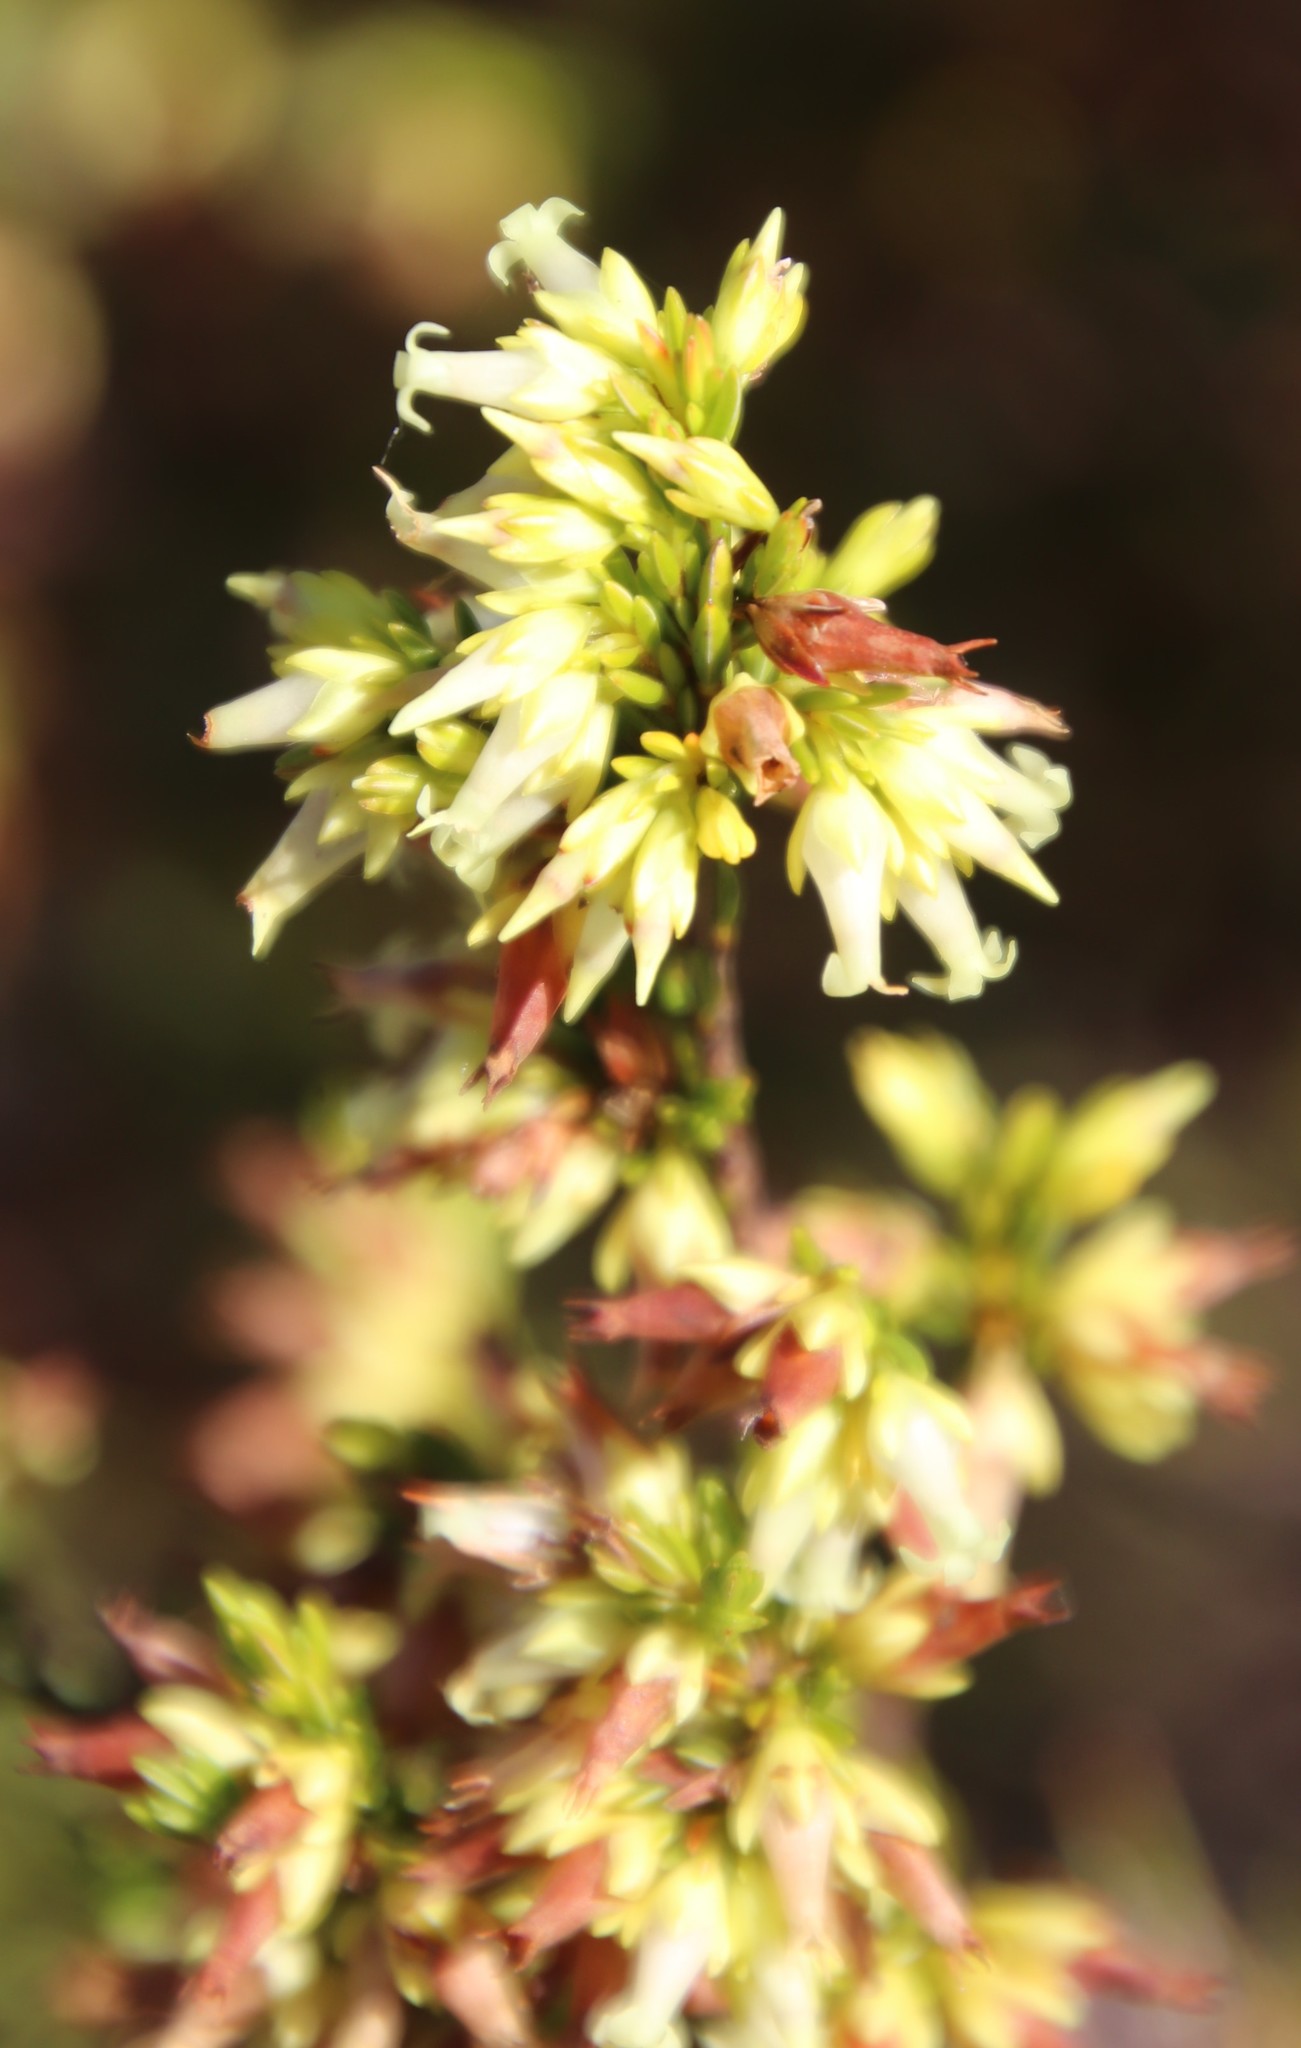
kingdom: Plantae
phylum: Tracheophyta
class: Magnoliopsida
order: Ericales
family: Ericaceae
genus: Erica
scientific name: Erica lutea
